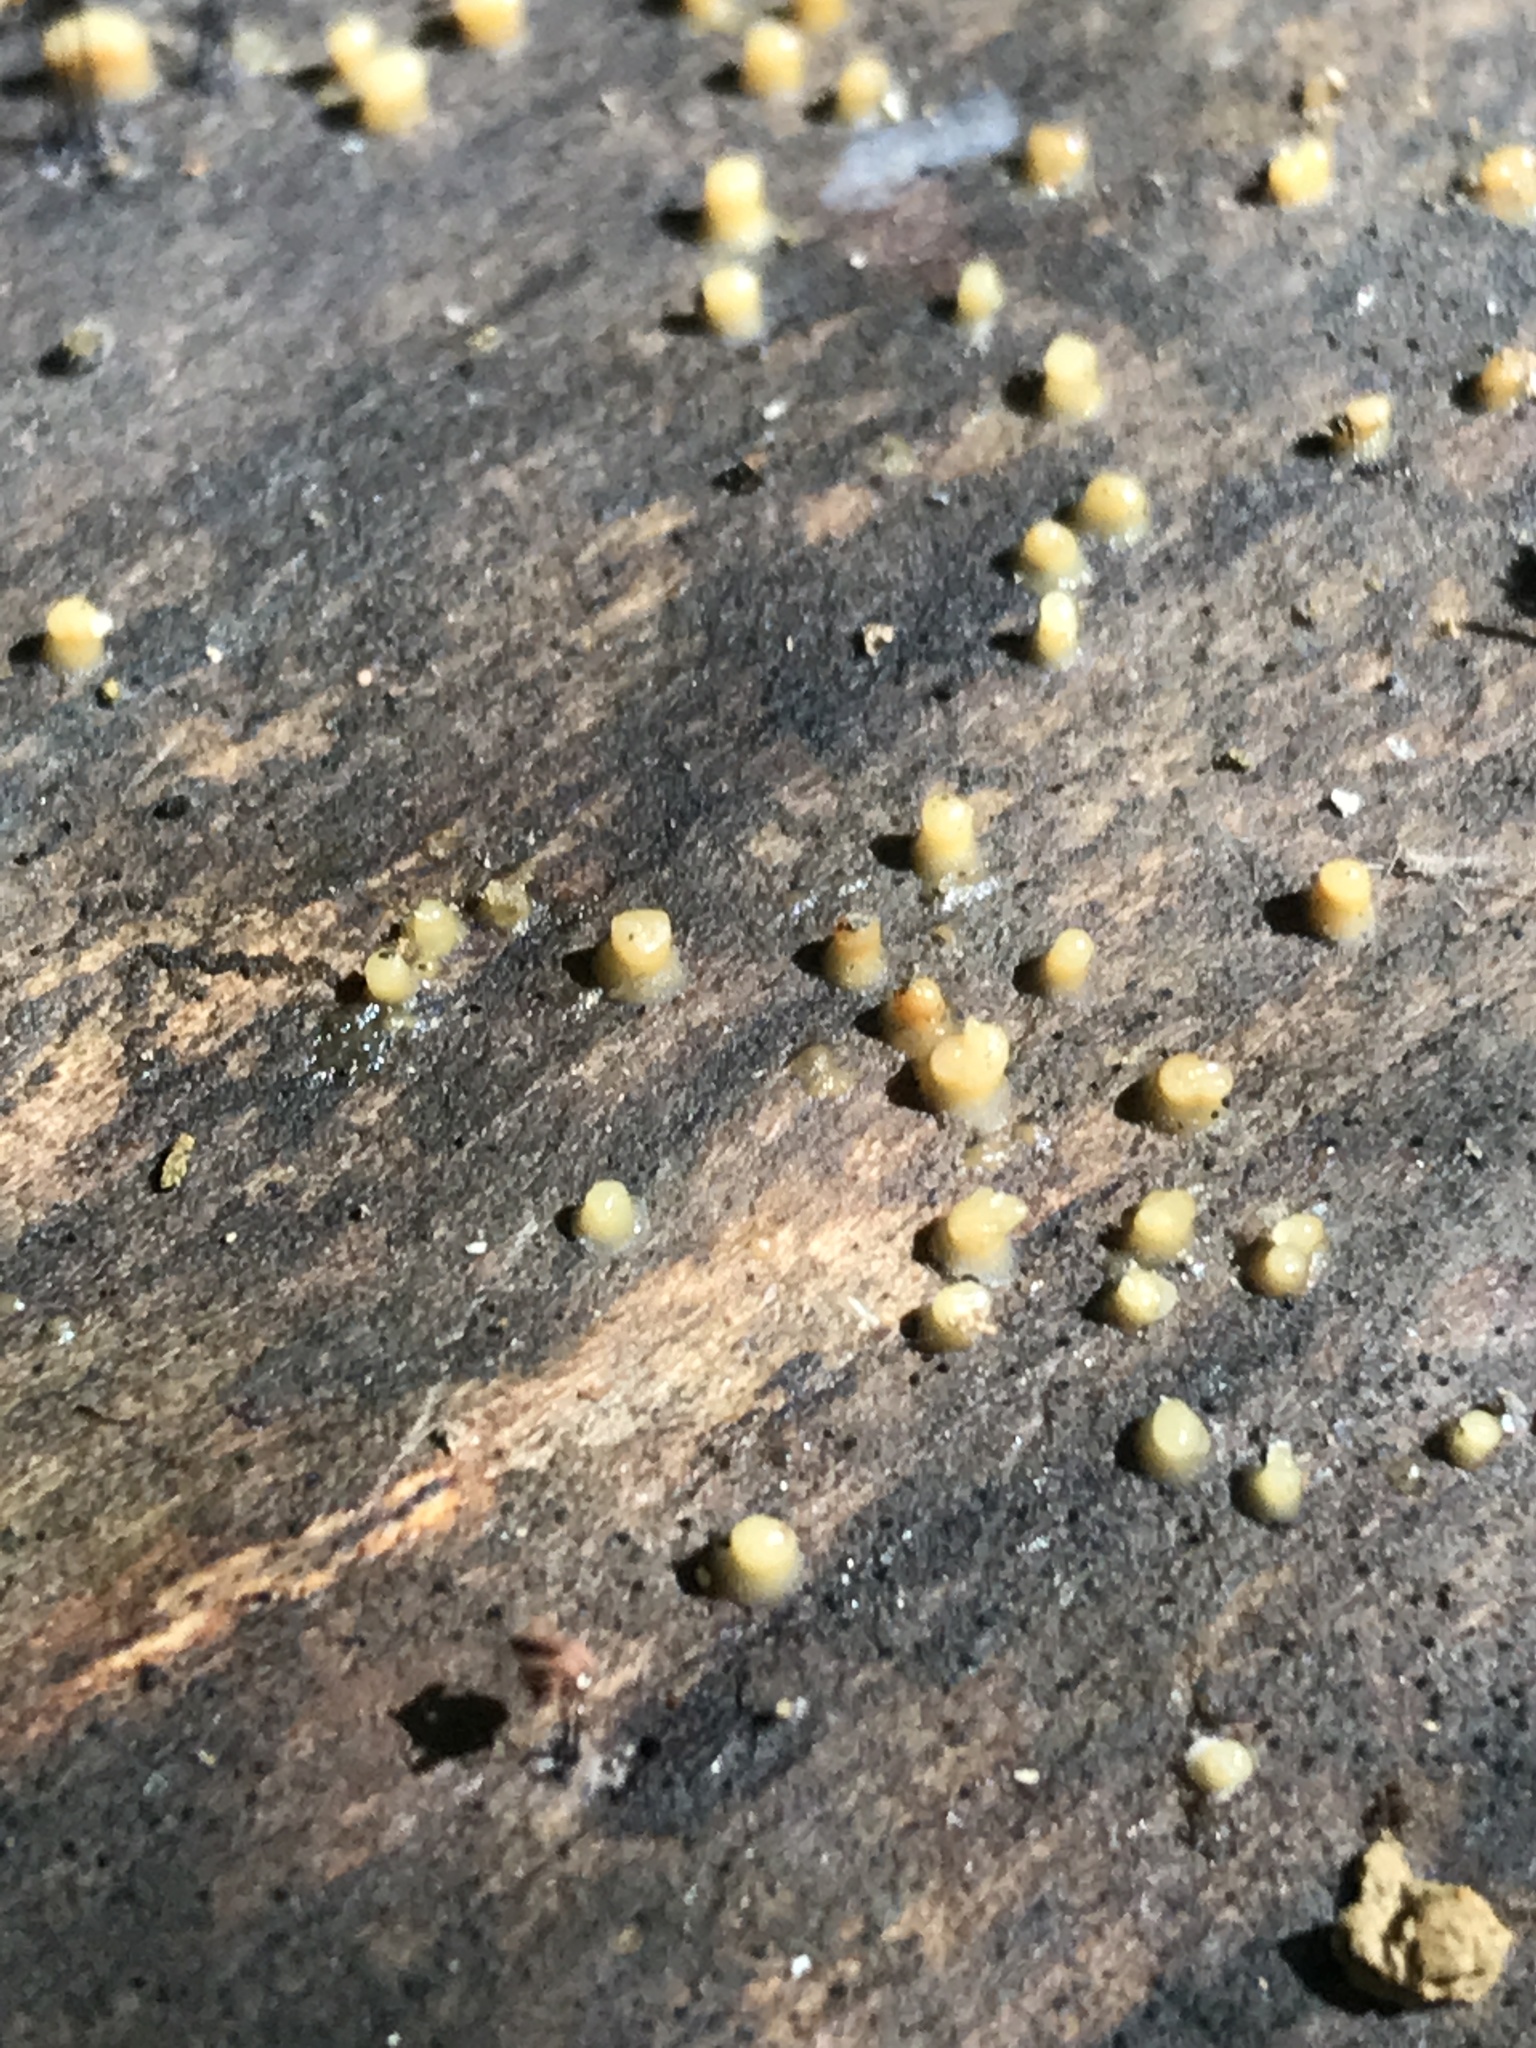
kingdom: Fungi
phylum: Basidiomycota
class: Atractiellomycetes
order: Atractiellales
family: Phleogenaceae
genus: Helicogloea
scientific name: Helicogloea compressa
